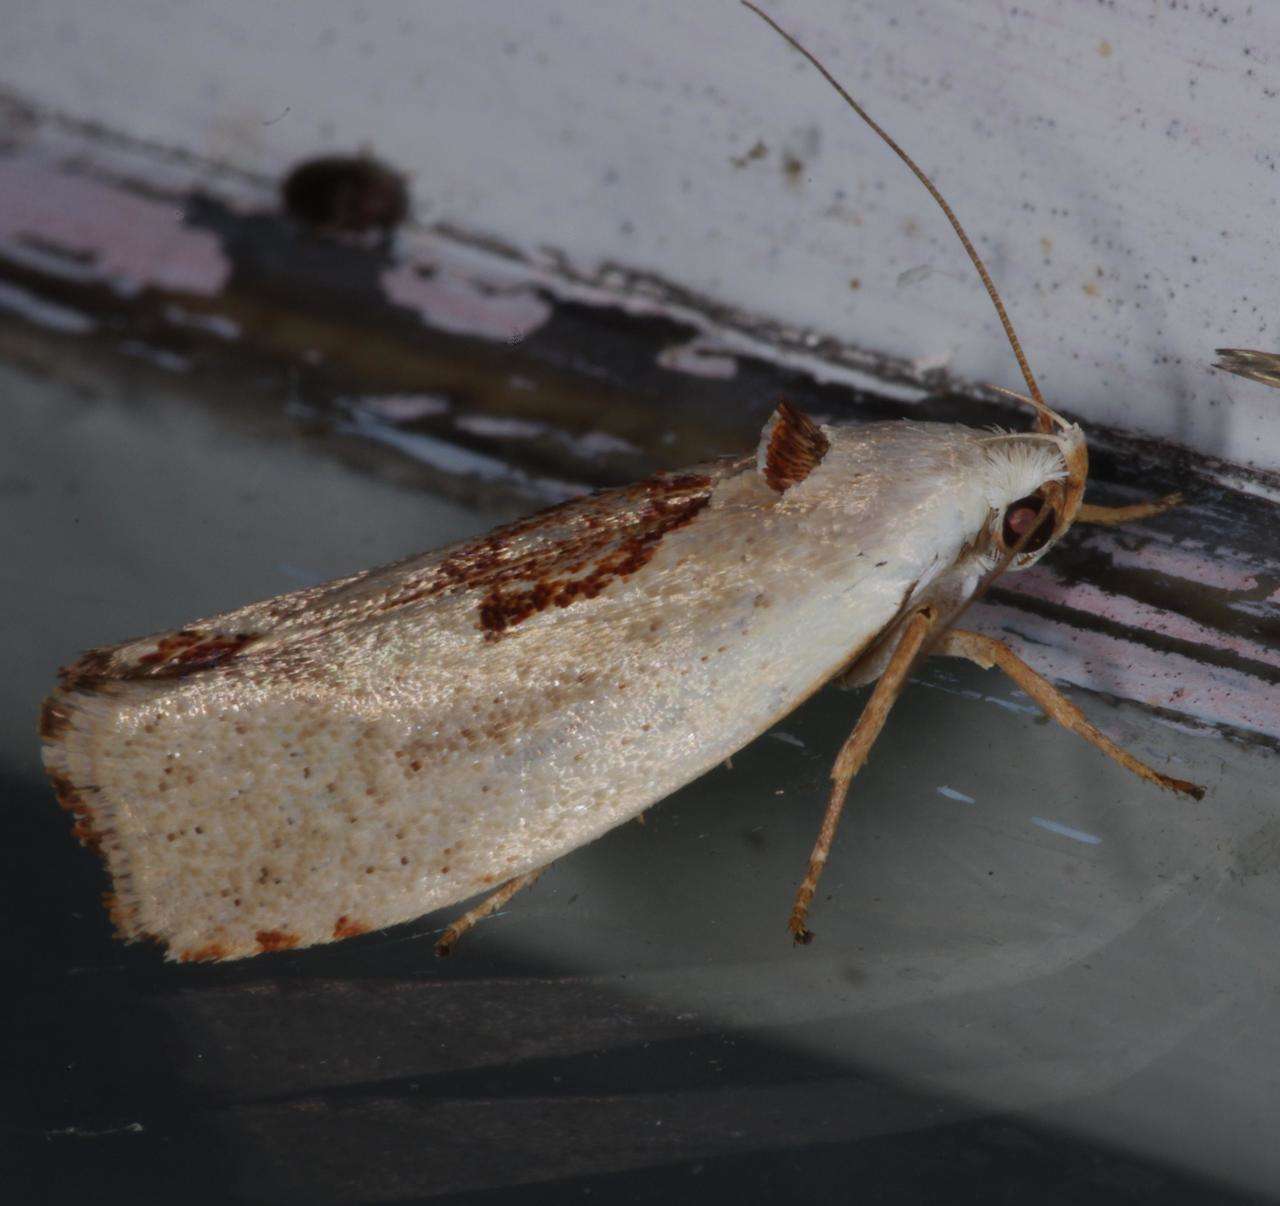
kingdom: Animalia
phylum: Arthropoda
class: Insecta
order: Lepidoptera
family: Xyloryctidae
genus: Tymbophora
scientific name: Tymbophora peltastis
